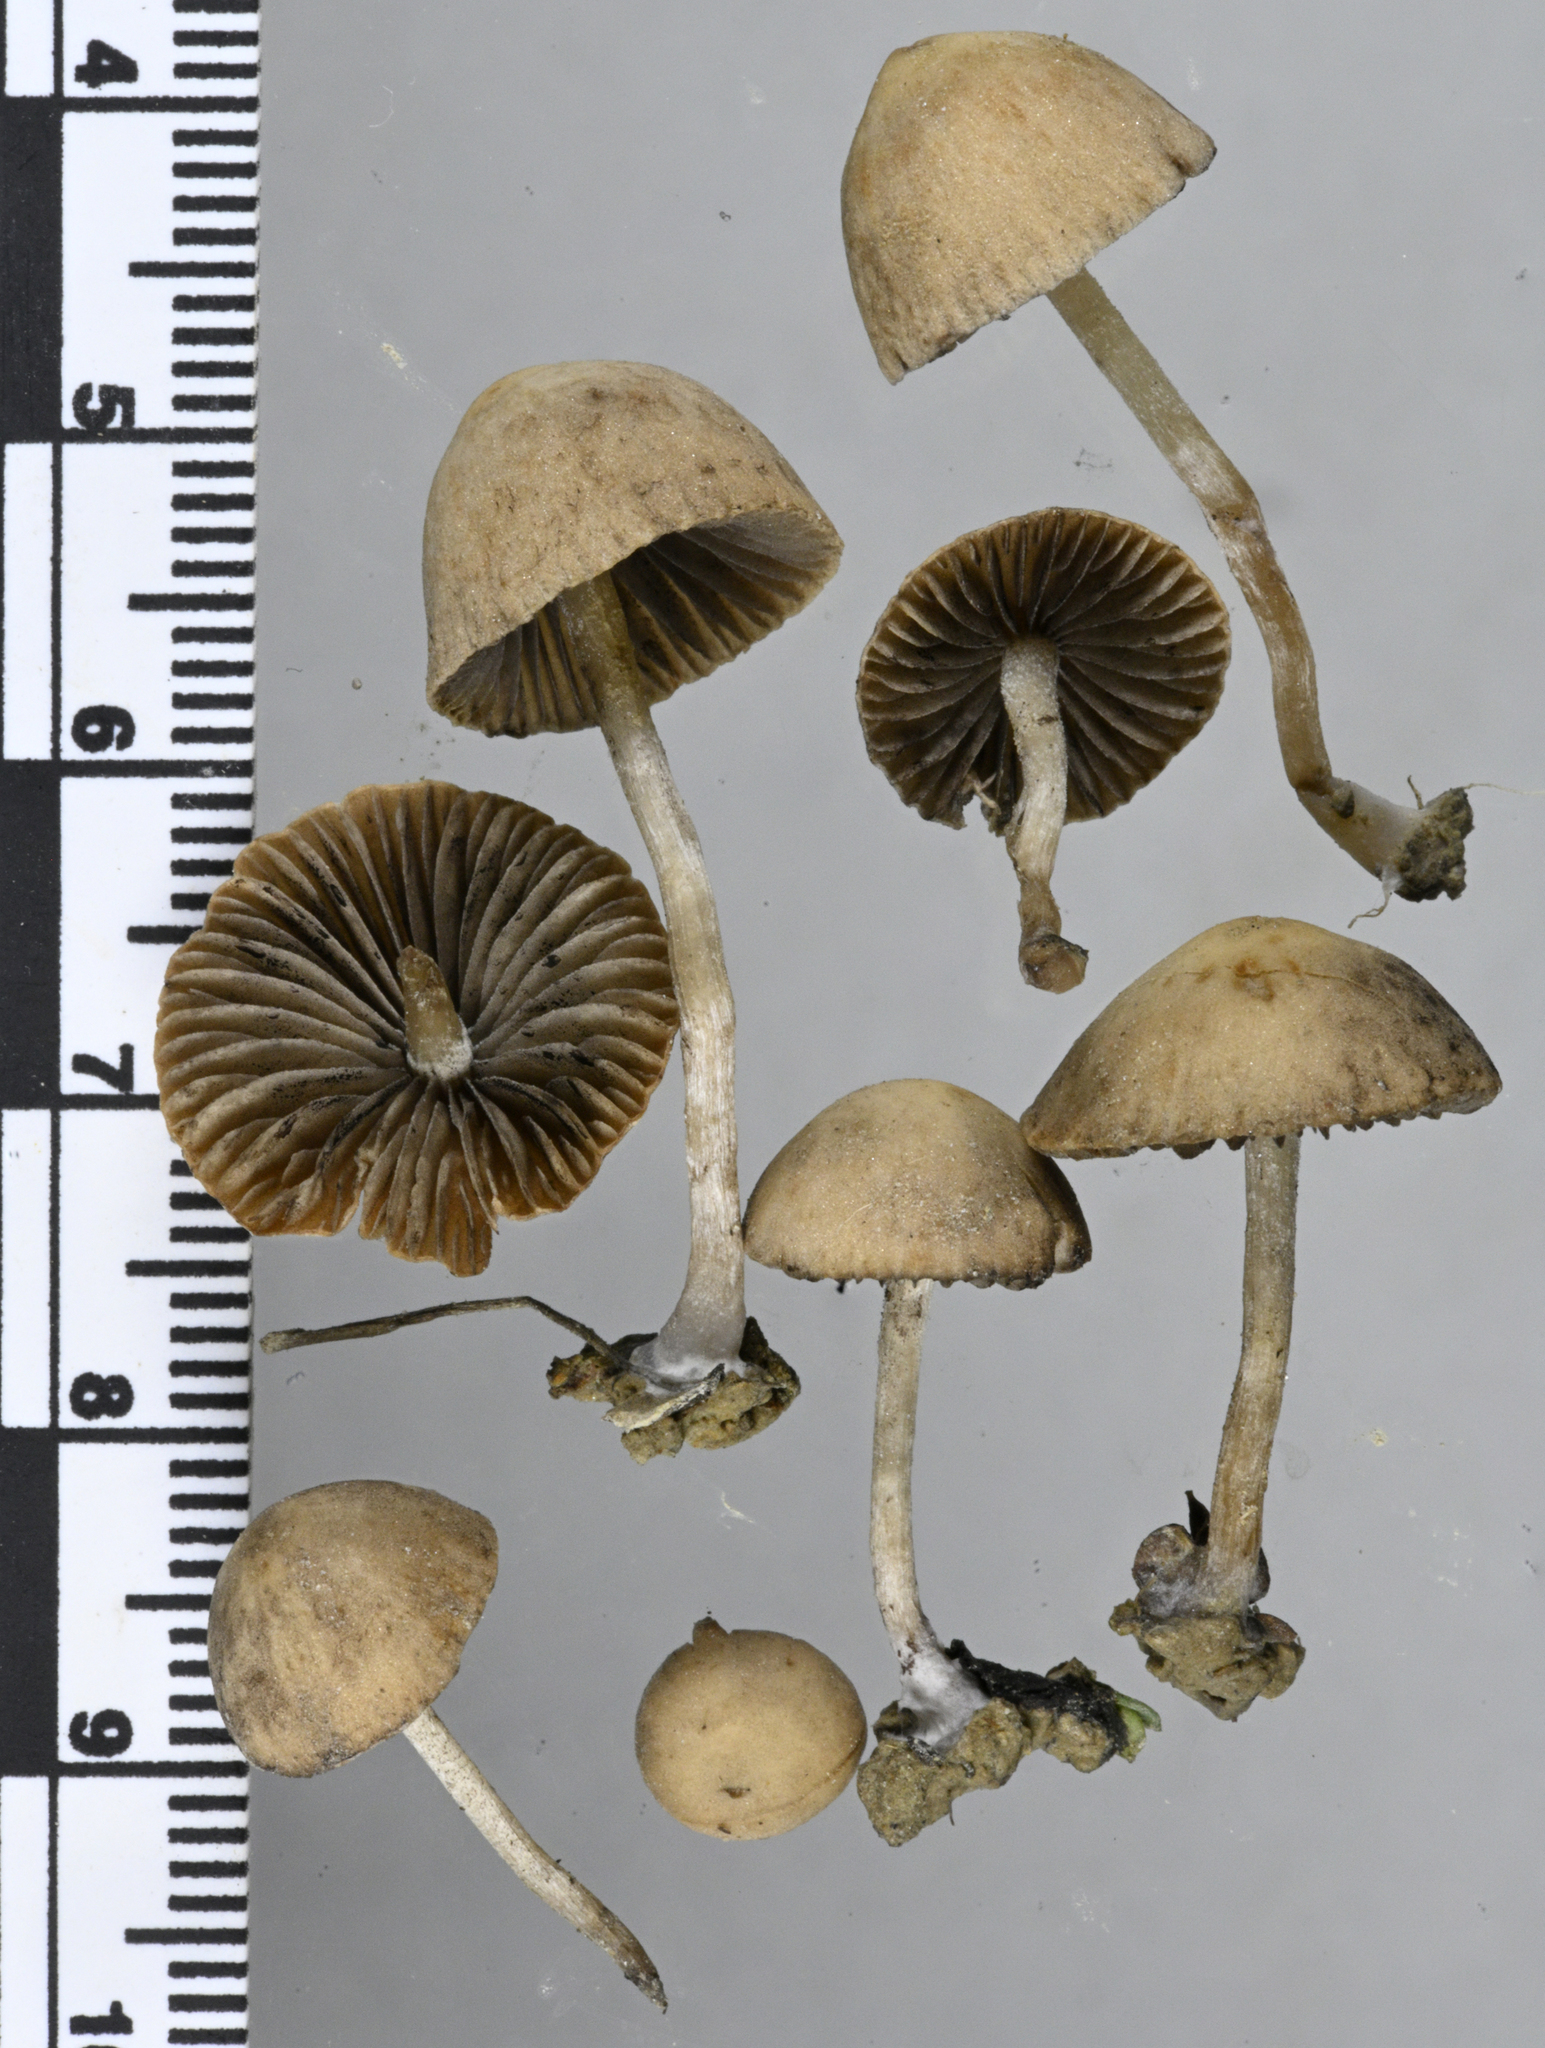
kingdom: Fungi
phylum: Basidiomycota
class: Agaricomycetes
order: Agaricales
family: Psathyrellaceae
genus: Psathyrella
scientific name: Psathyrella lutensis
